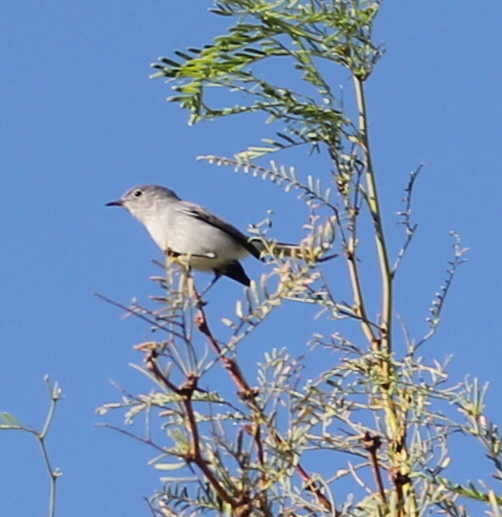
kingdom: Animalia
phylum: Chordata
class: Aves
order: Passeriformes
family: Polioptilidae
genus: Polioptila
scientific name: Polioptila caerulea
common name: Blue-gray gnatcatcher
